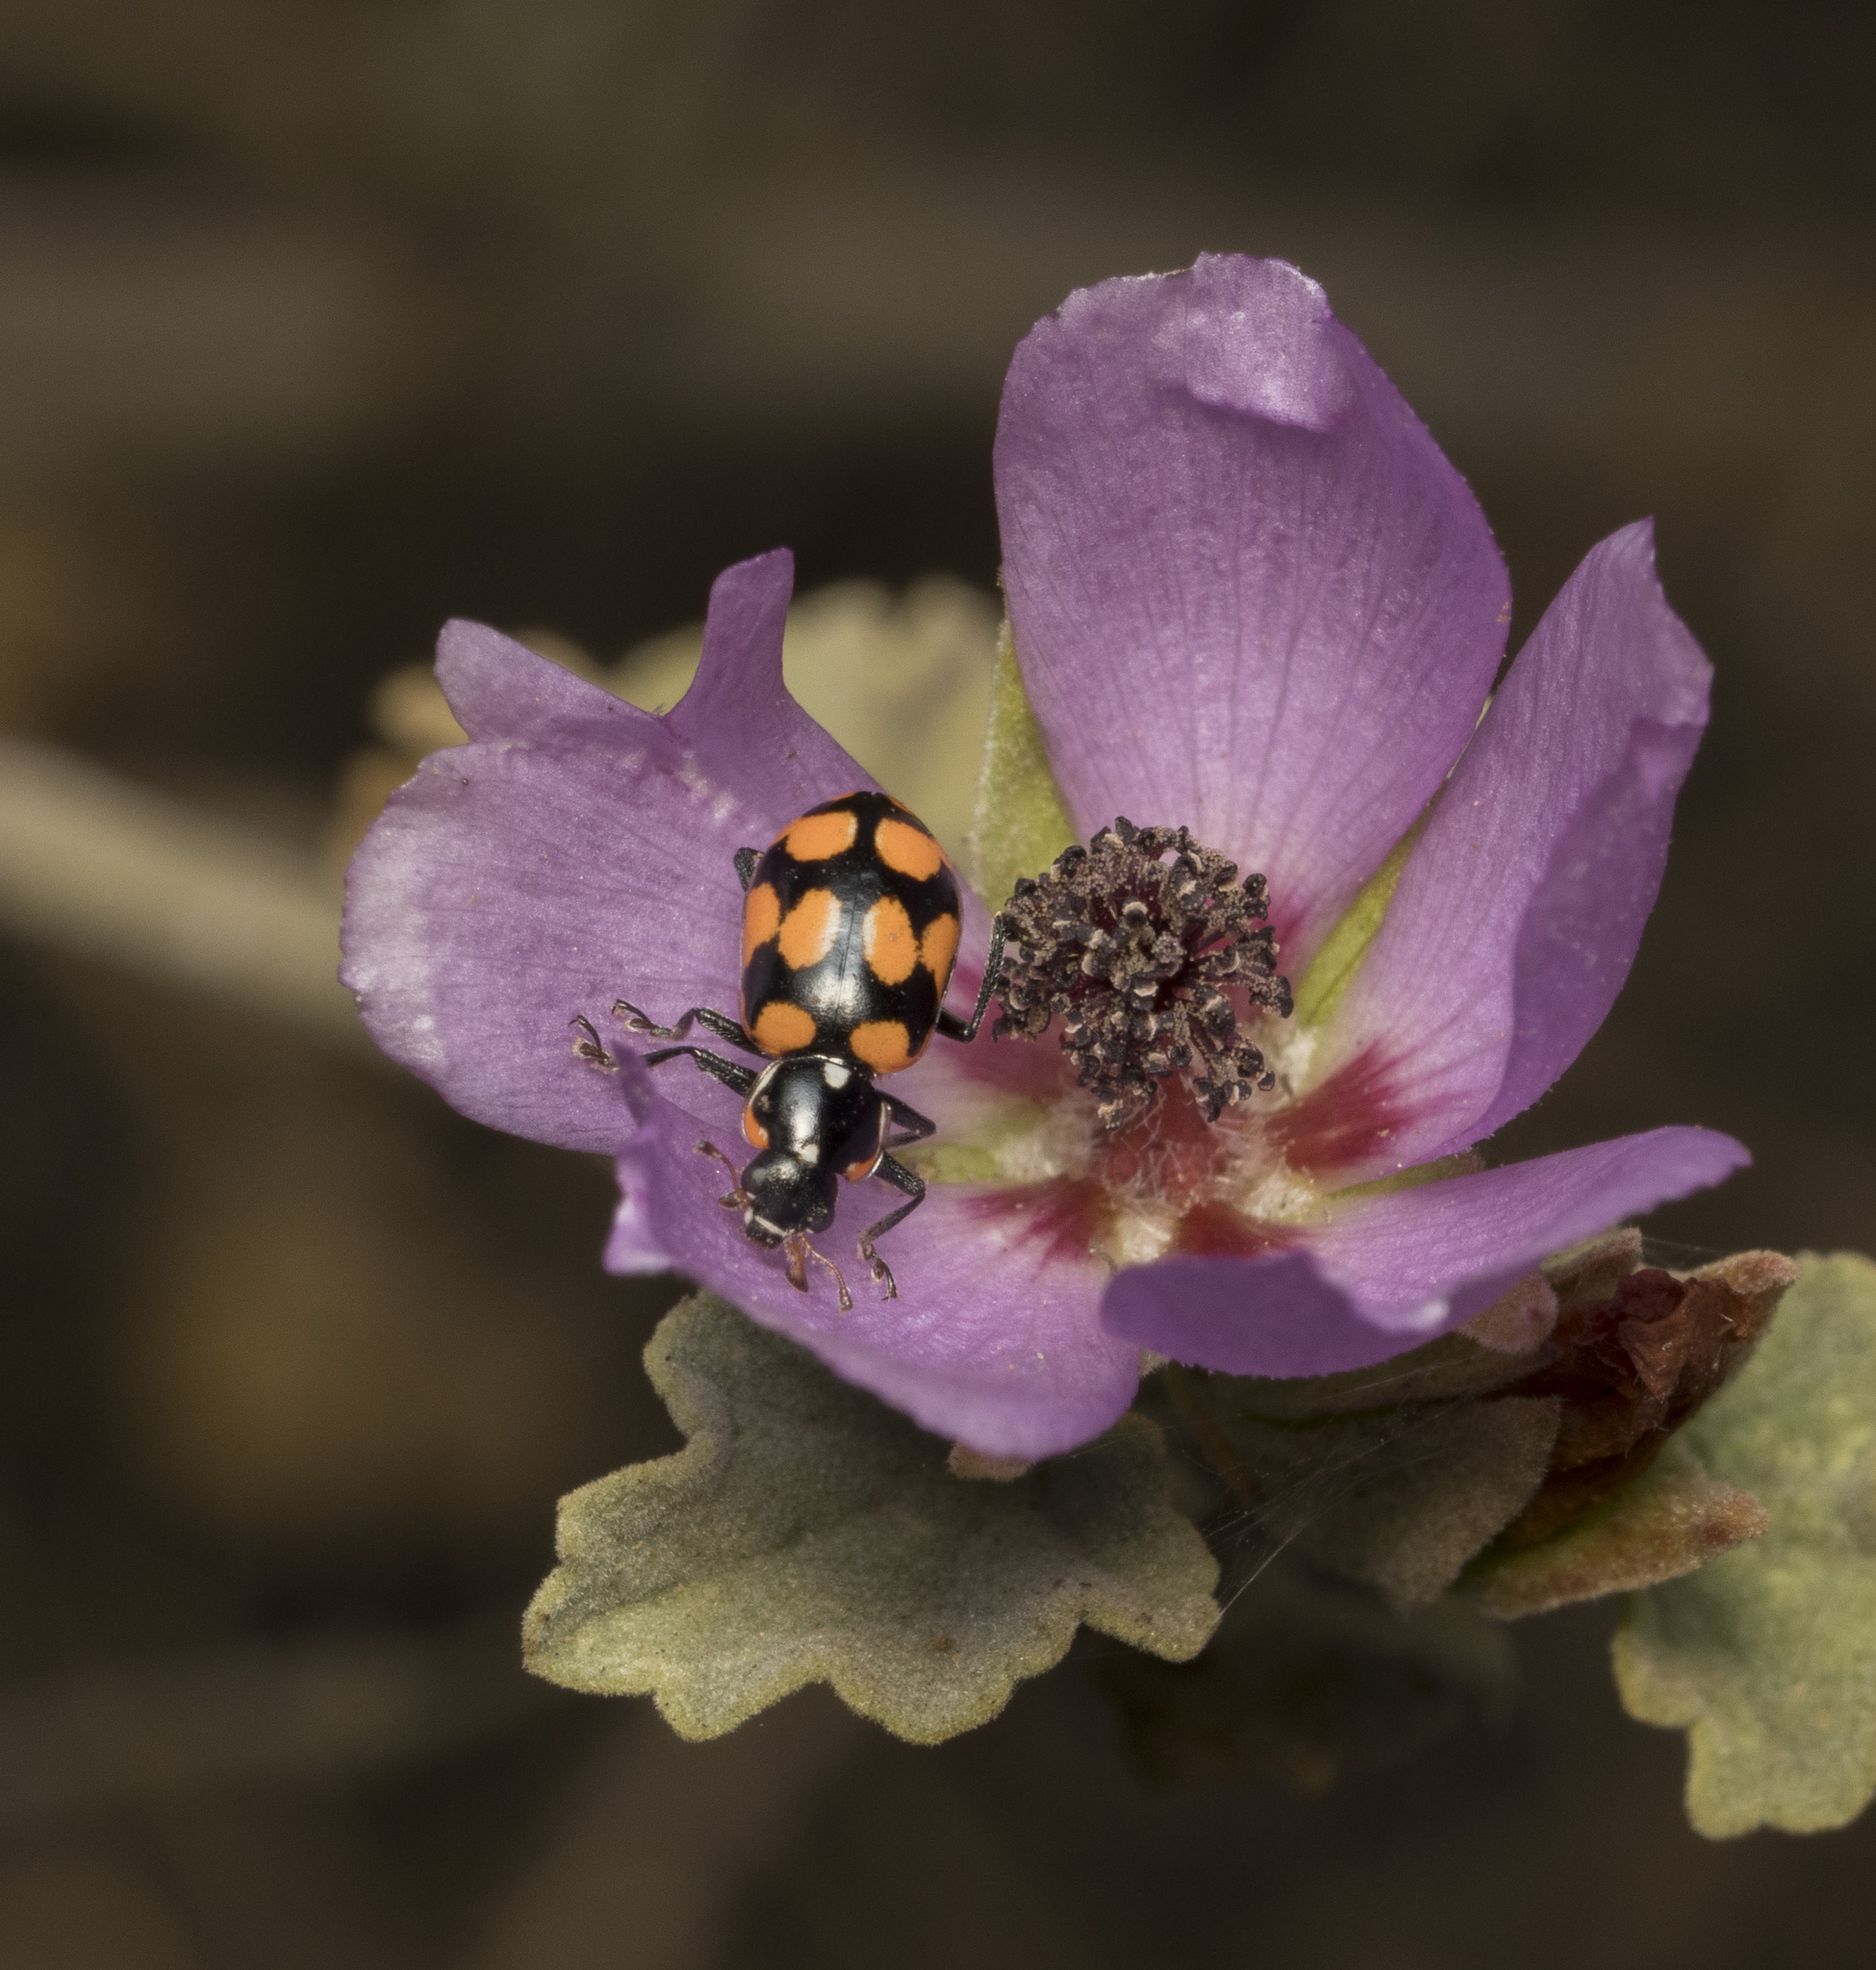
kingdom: Animalia
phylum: Arthropoda
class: Insecta
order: Coleoptera
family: Coccinellidae
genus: Eriopis
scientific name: Eriopis chilensis
